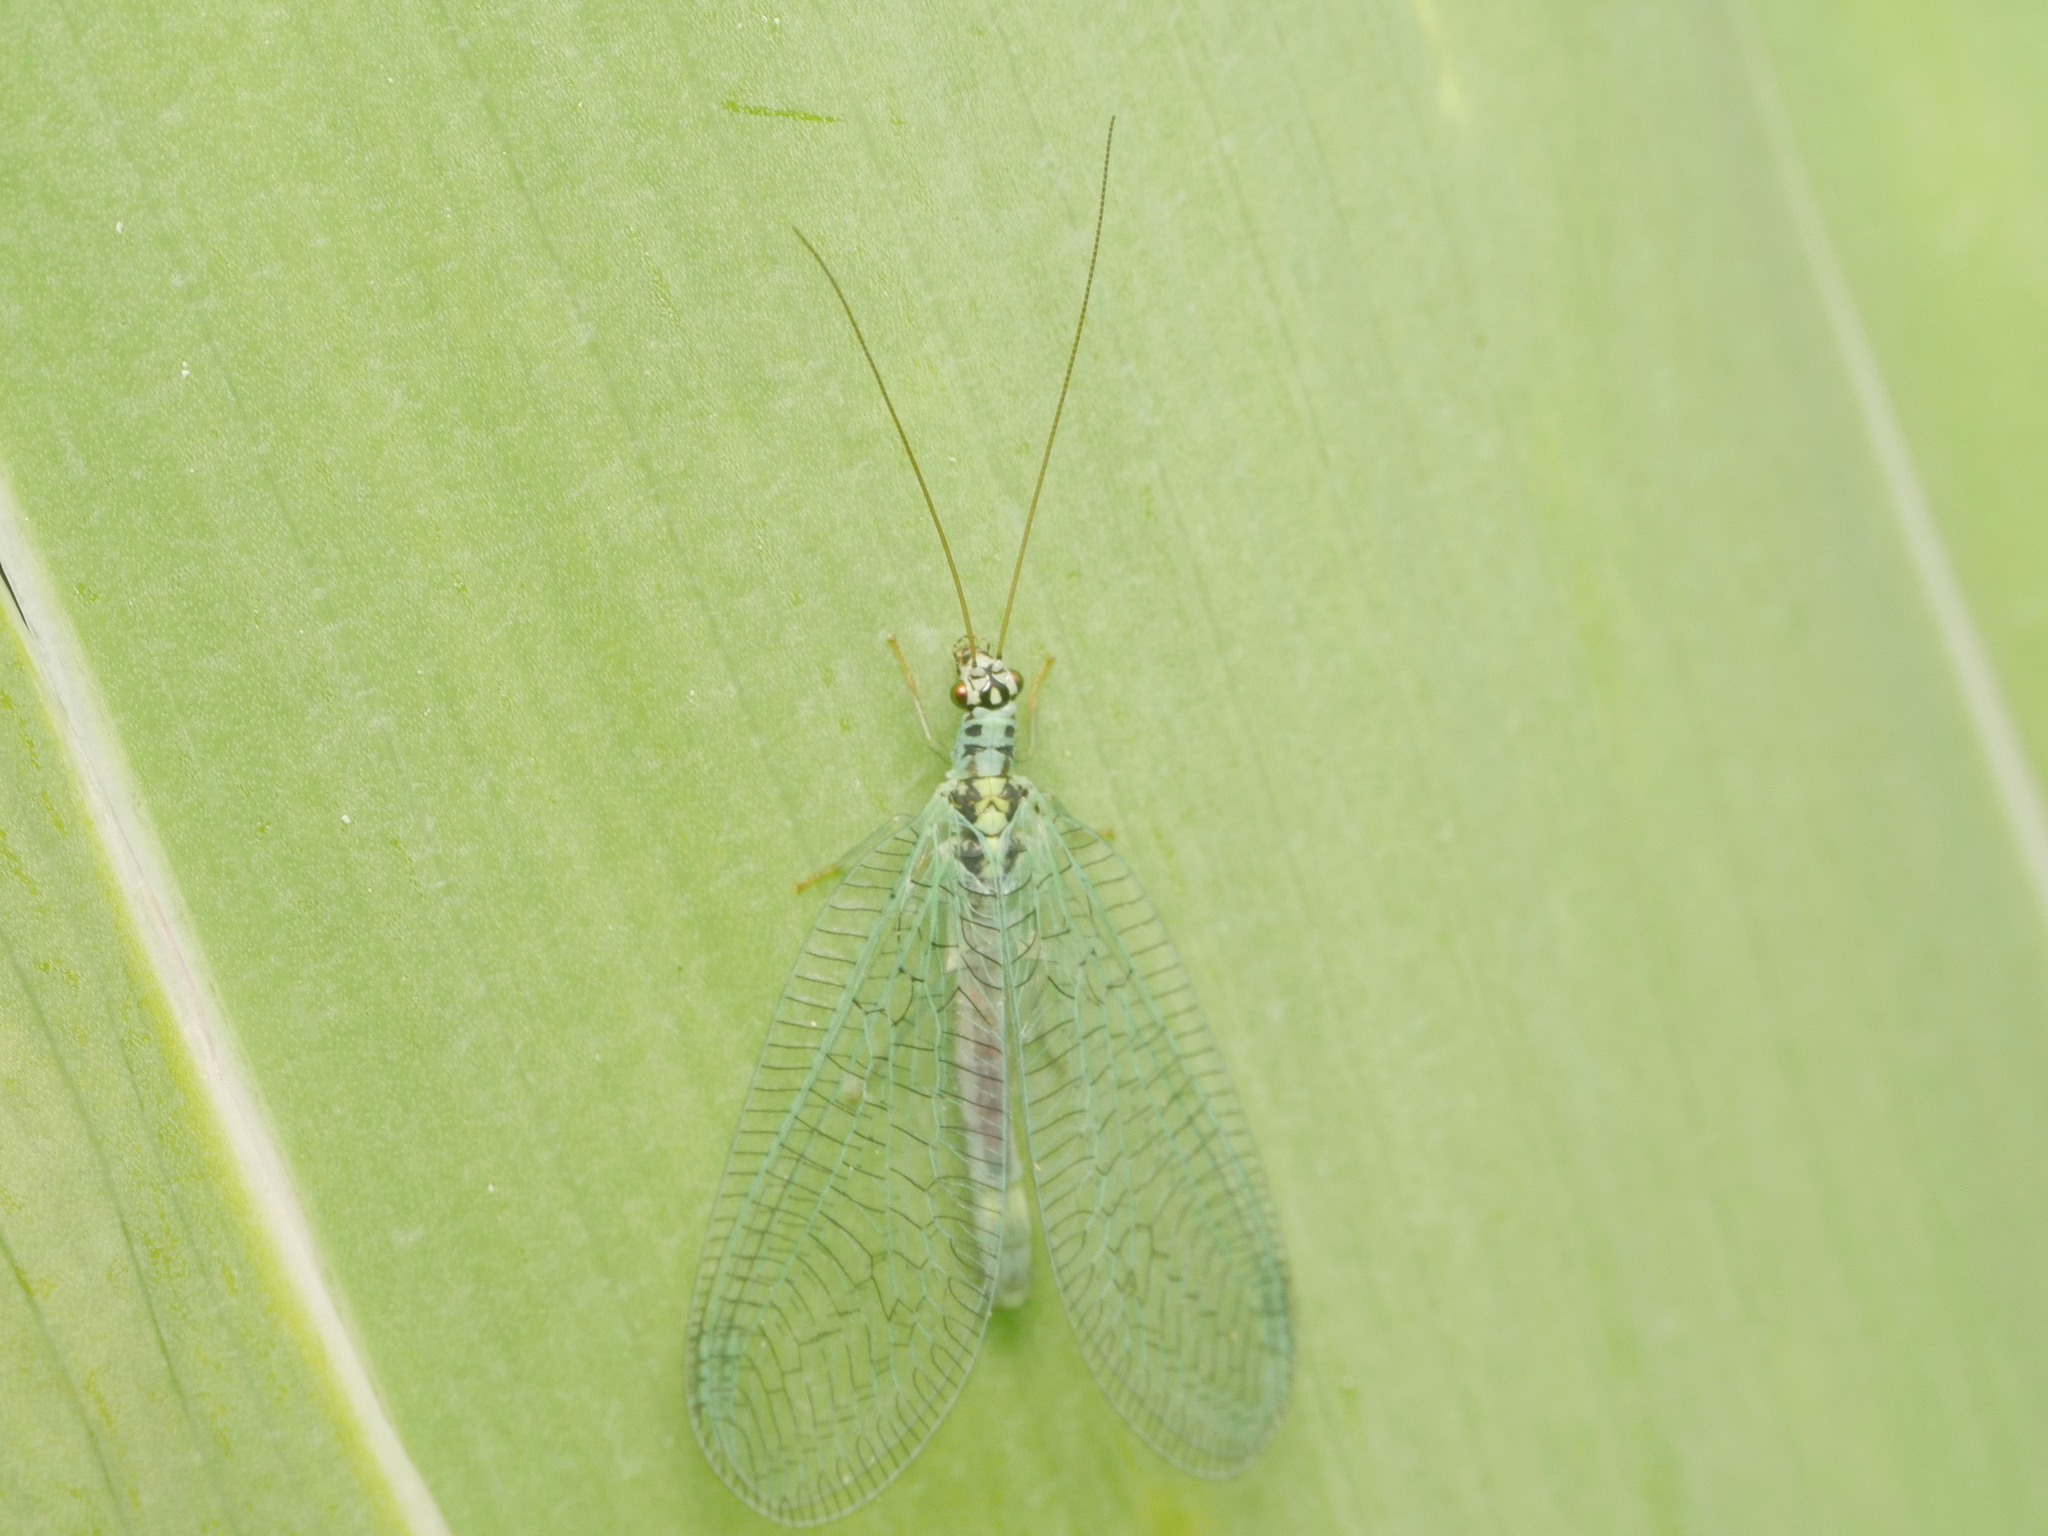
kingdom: Animalia
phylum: Arthropoda
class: Insecta
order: Neuroptera
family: Chrysopidae
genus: Chrysopa
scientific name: Chrysopa perla
